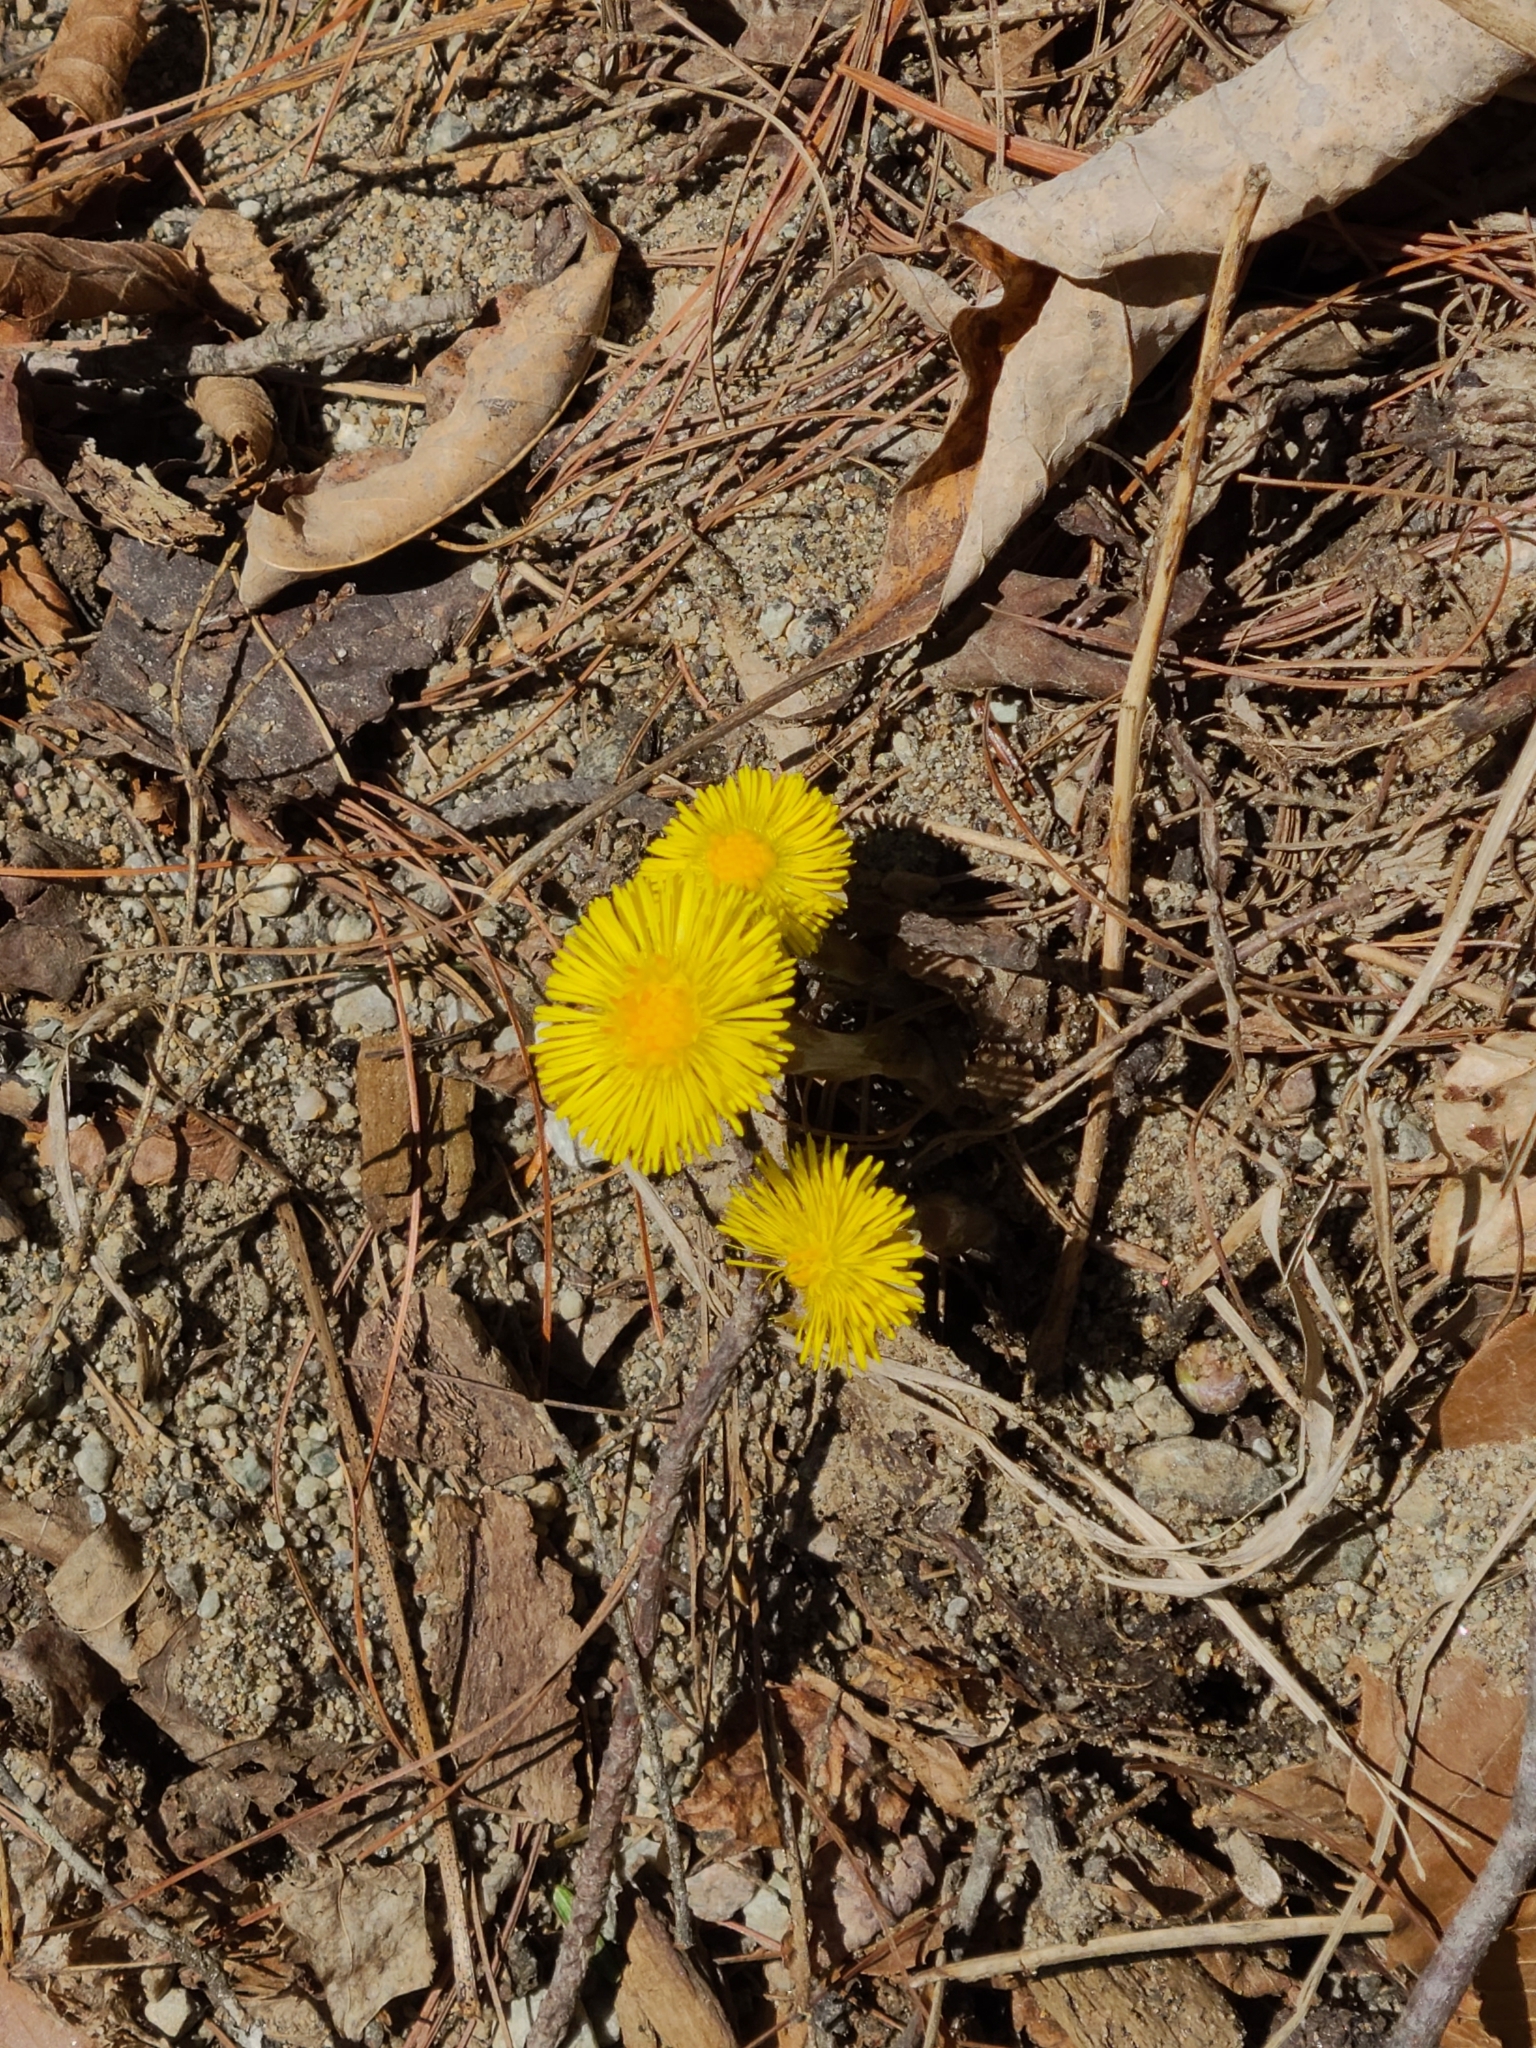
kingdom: Plantae
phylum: Tracheophyta
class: Magnoliopsida
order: Asterales
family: Asteraceae
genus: Tussilago
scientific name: Tussilago farfara
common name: Coltsfoot
